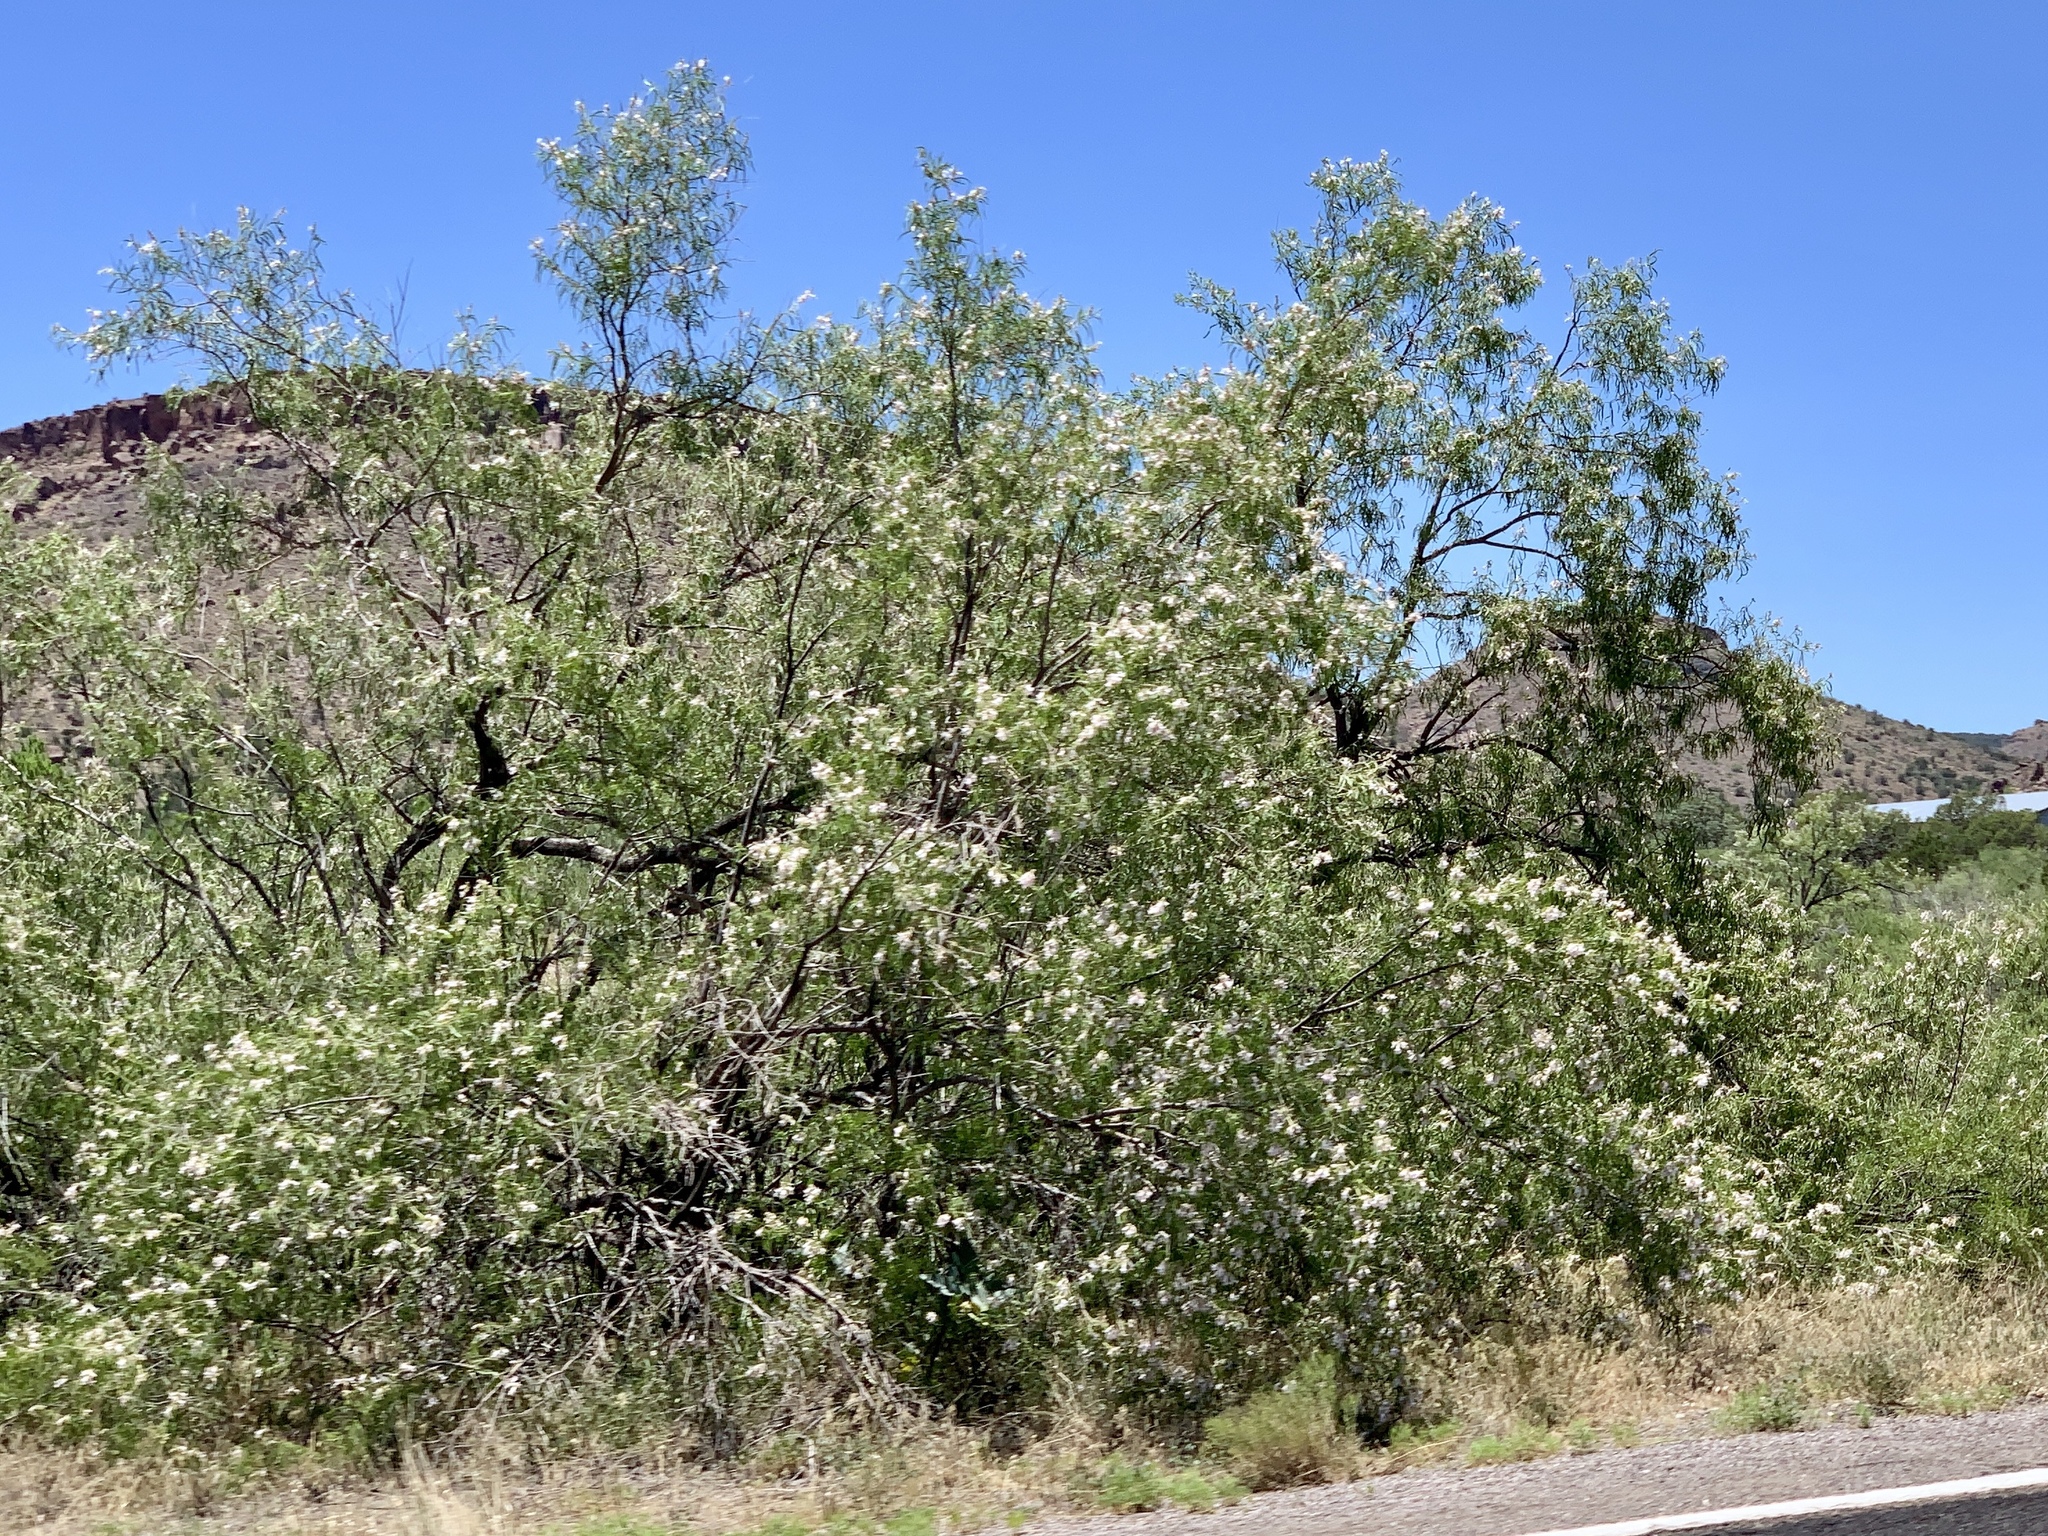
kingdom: Plantae
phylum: Tracheophyta
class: Magnoliopsida
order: Lamiales
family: Bignoniaceae
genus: Chilopsis
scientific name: Chilopsis linearis
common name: Desert-willow
